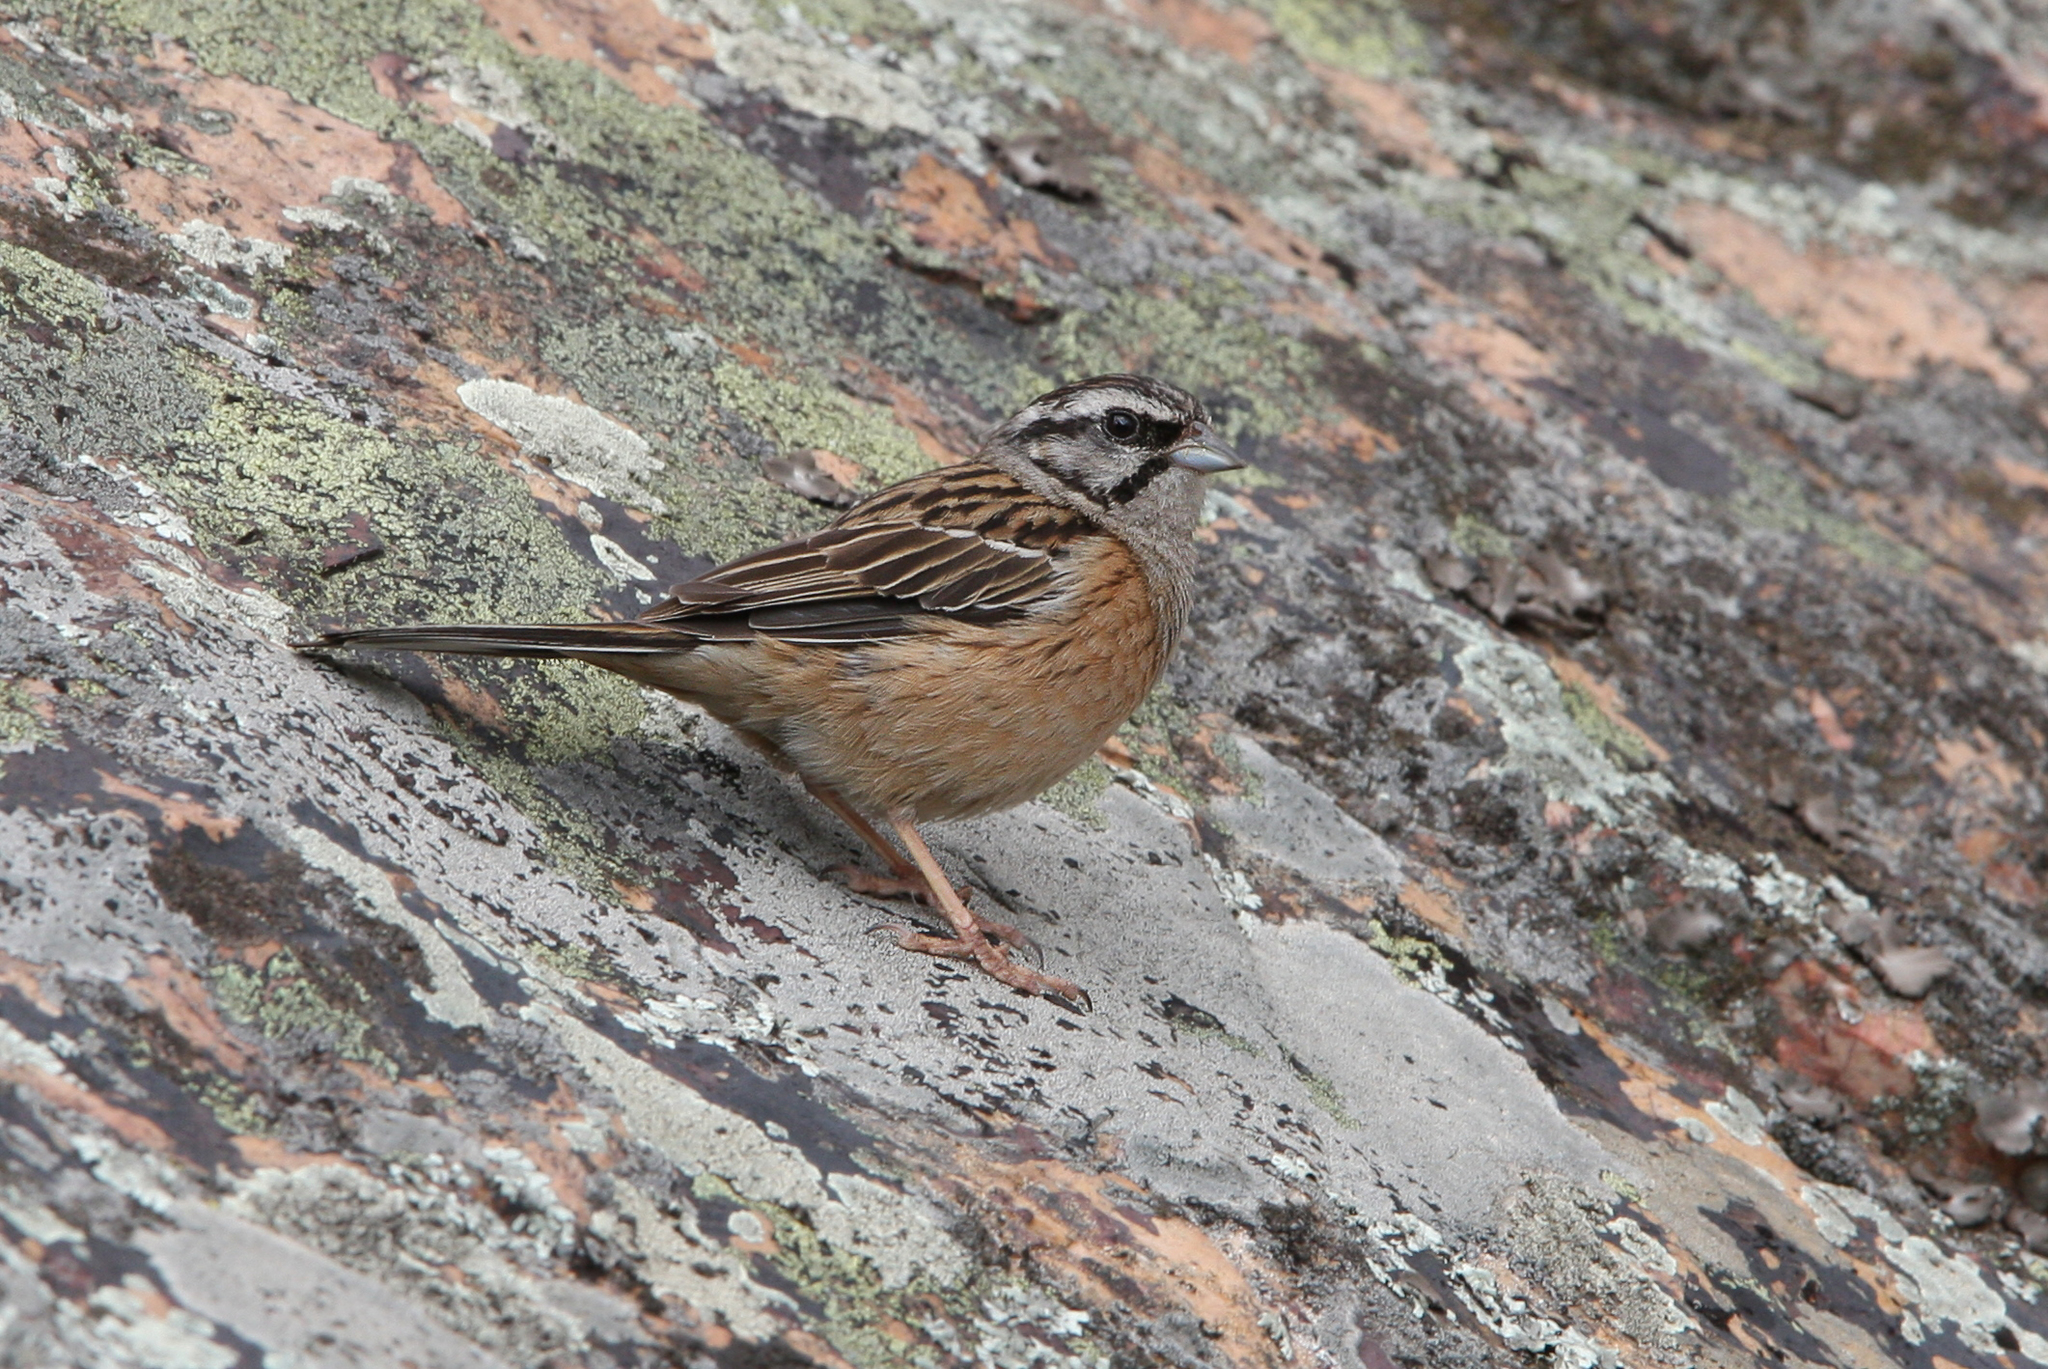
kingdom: Animalia
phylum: Chordata
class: Aves
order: Passeriformes
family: Emberizidae
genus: Emberiza
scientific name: Emberiza cia
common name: Rock bunting
